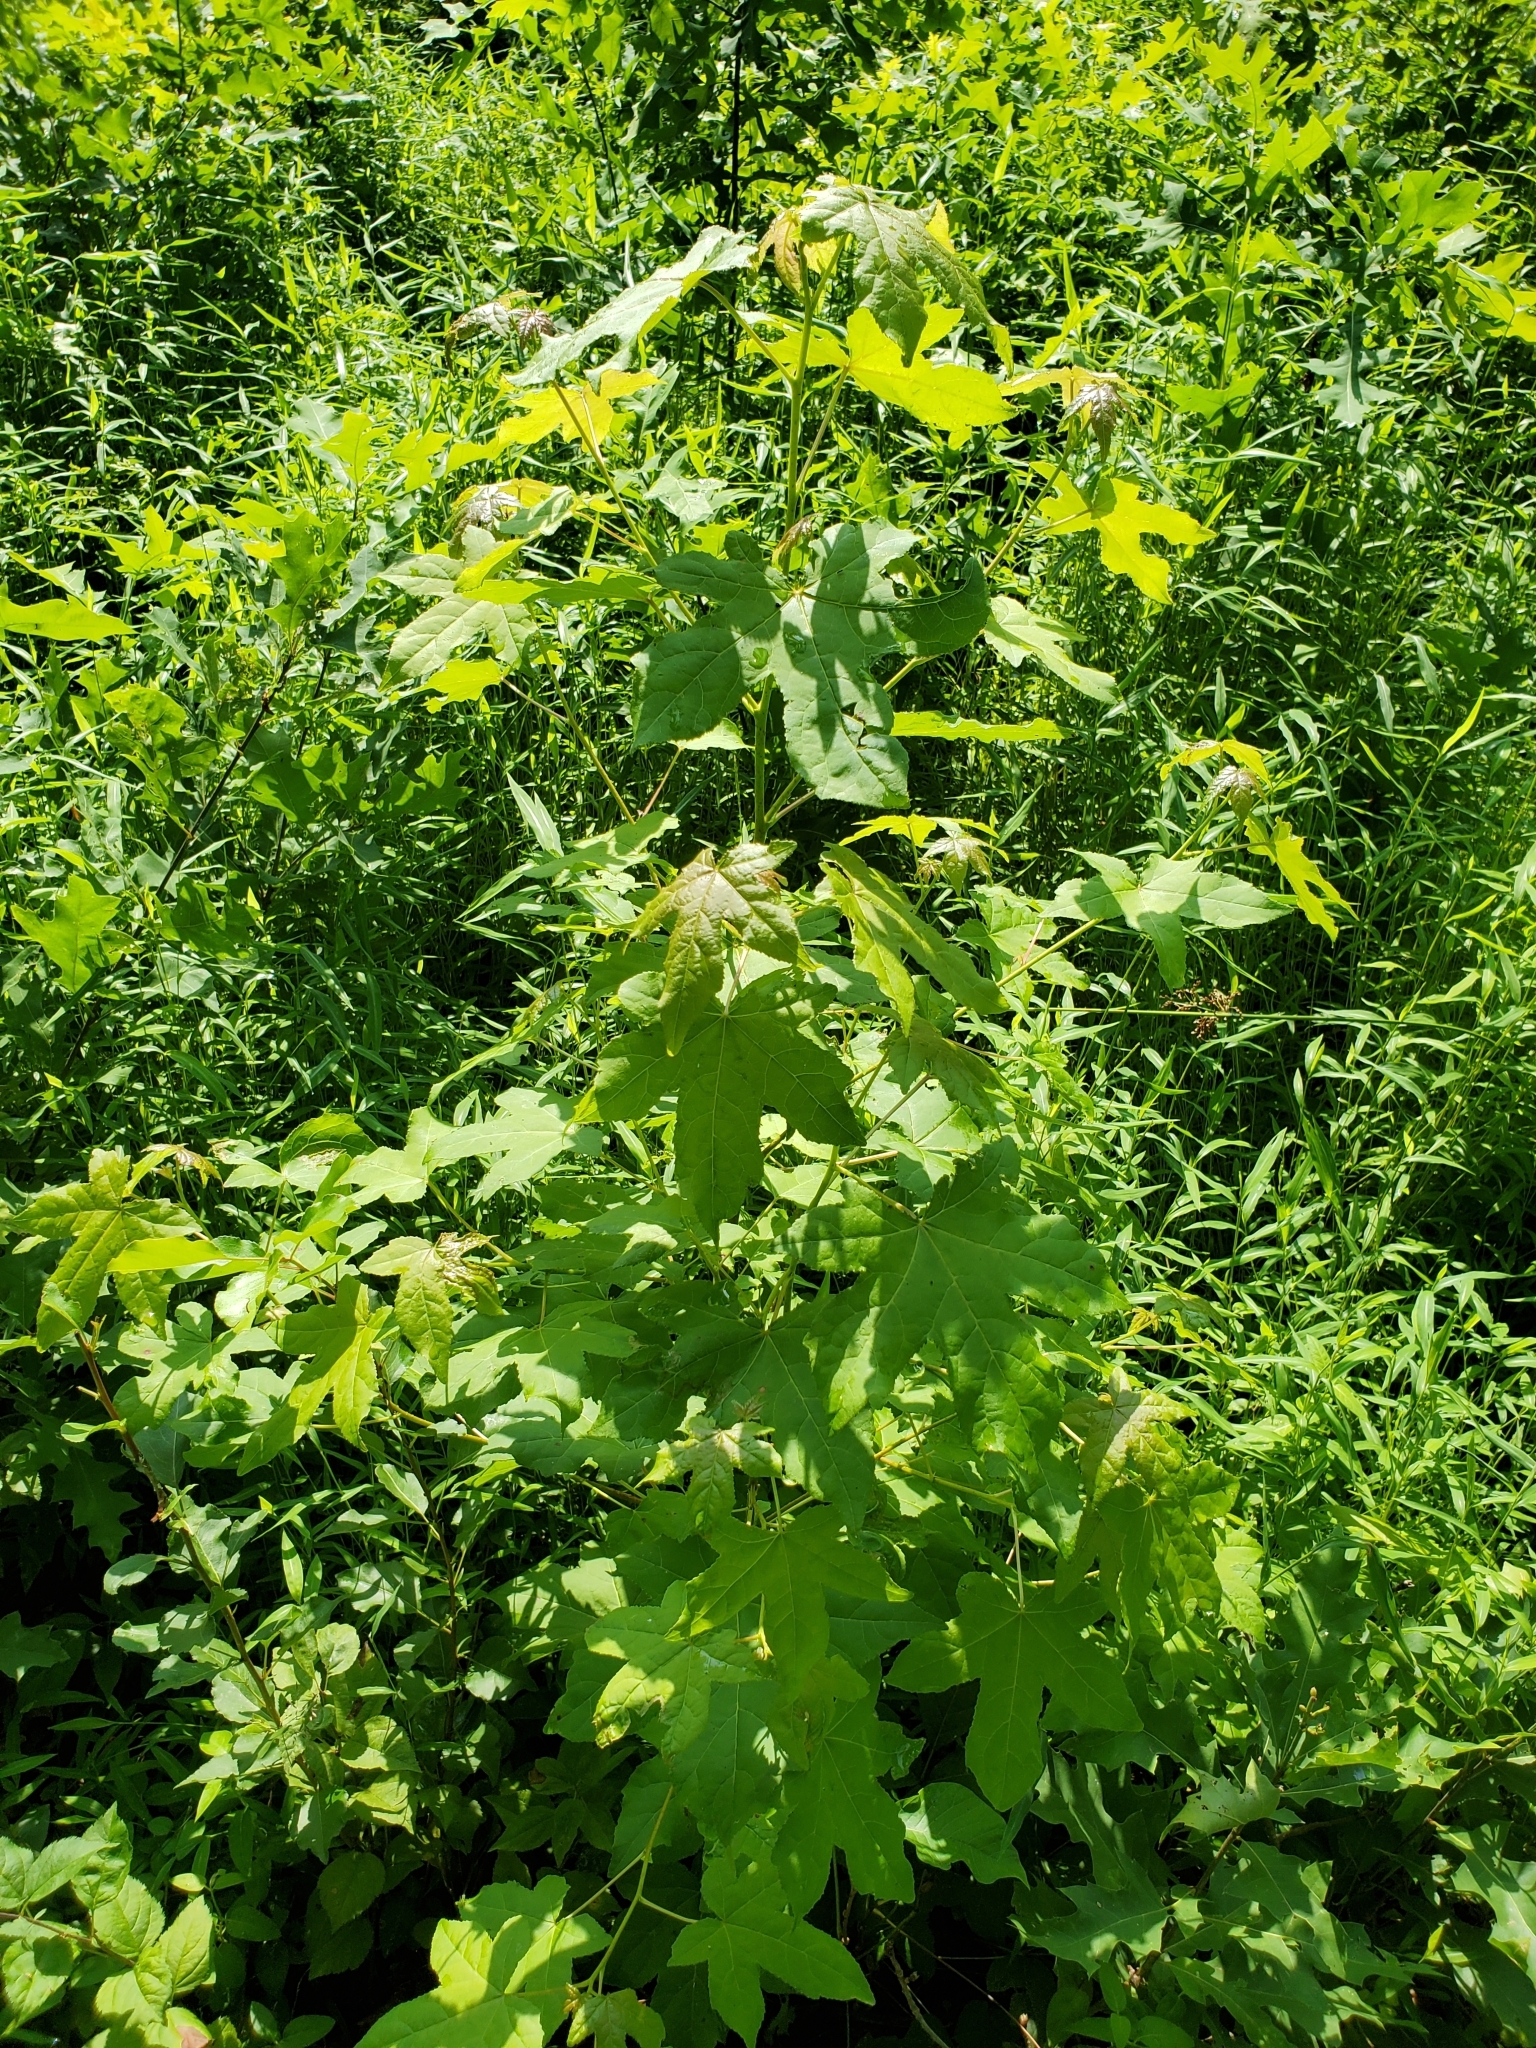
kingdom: Plantae
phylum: Tracheophyta
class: Magnoliopsida
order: Saxifragales
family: Altingiaceae
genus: Liquidambar
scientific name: Liquidambar styraciflua
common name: Sweet gum
